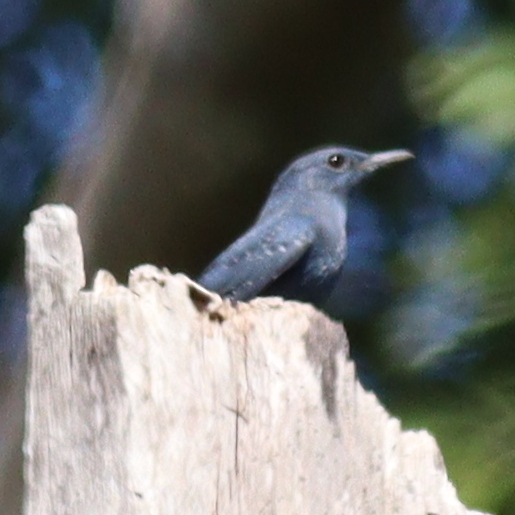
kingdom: Animalia
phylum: Chordata
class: Aves
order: Passeriformes
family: Muscicapidae
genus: Monticola
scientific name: Monticola solitarius
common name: Blue rock thrush
